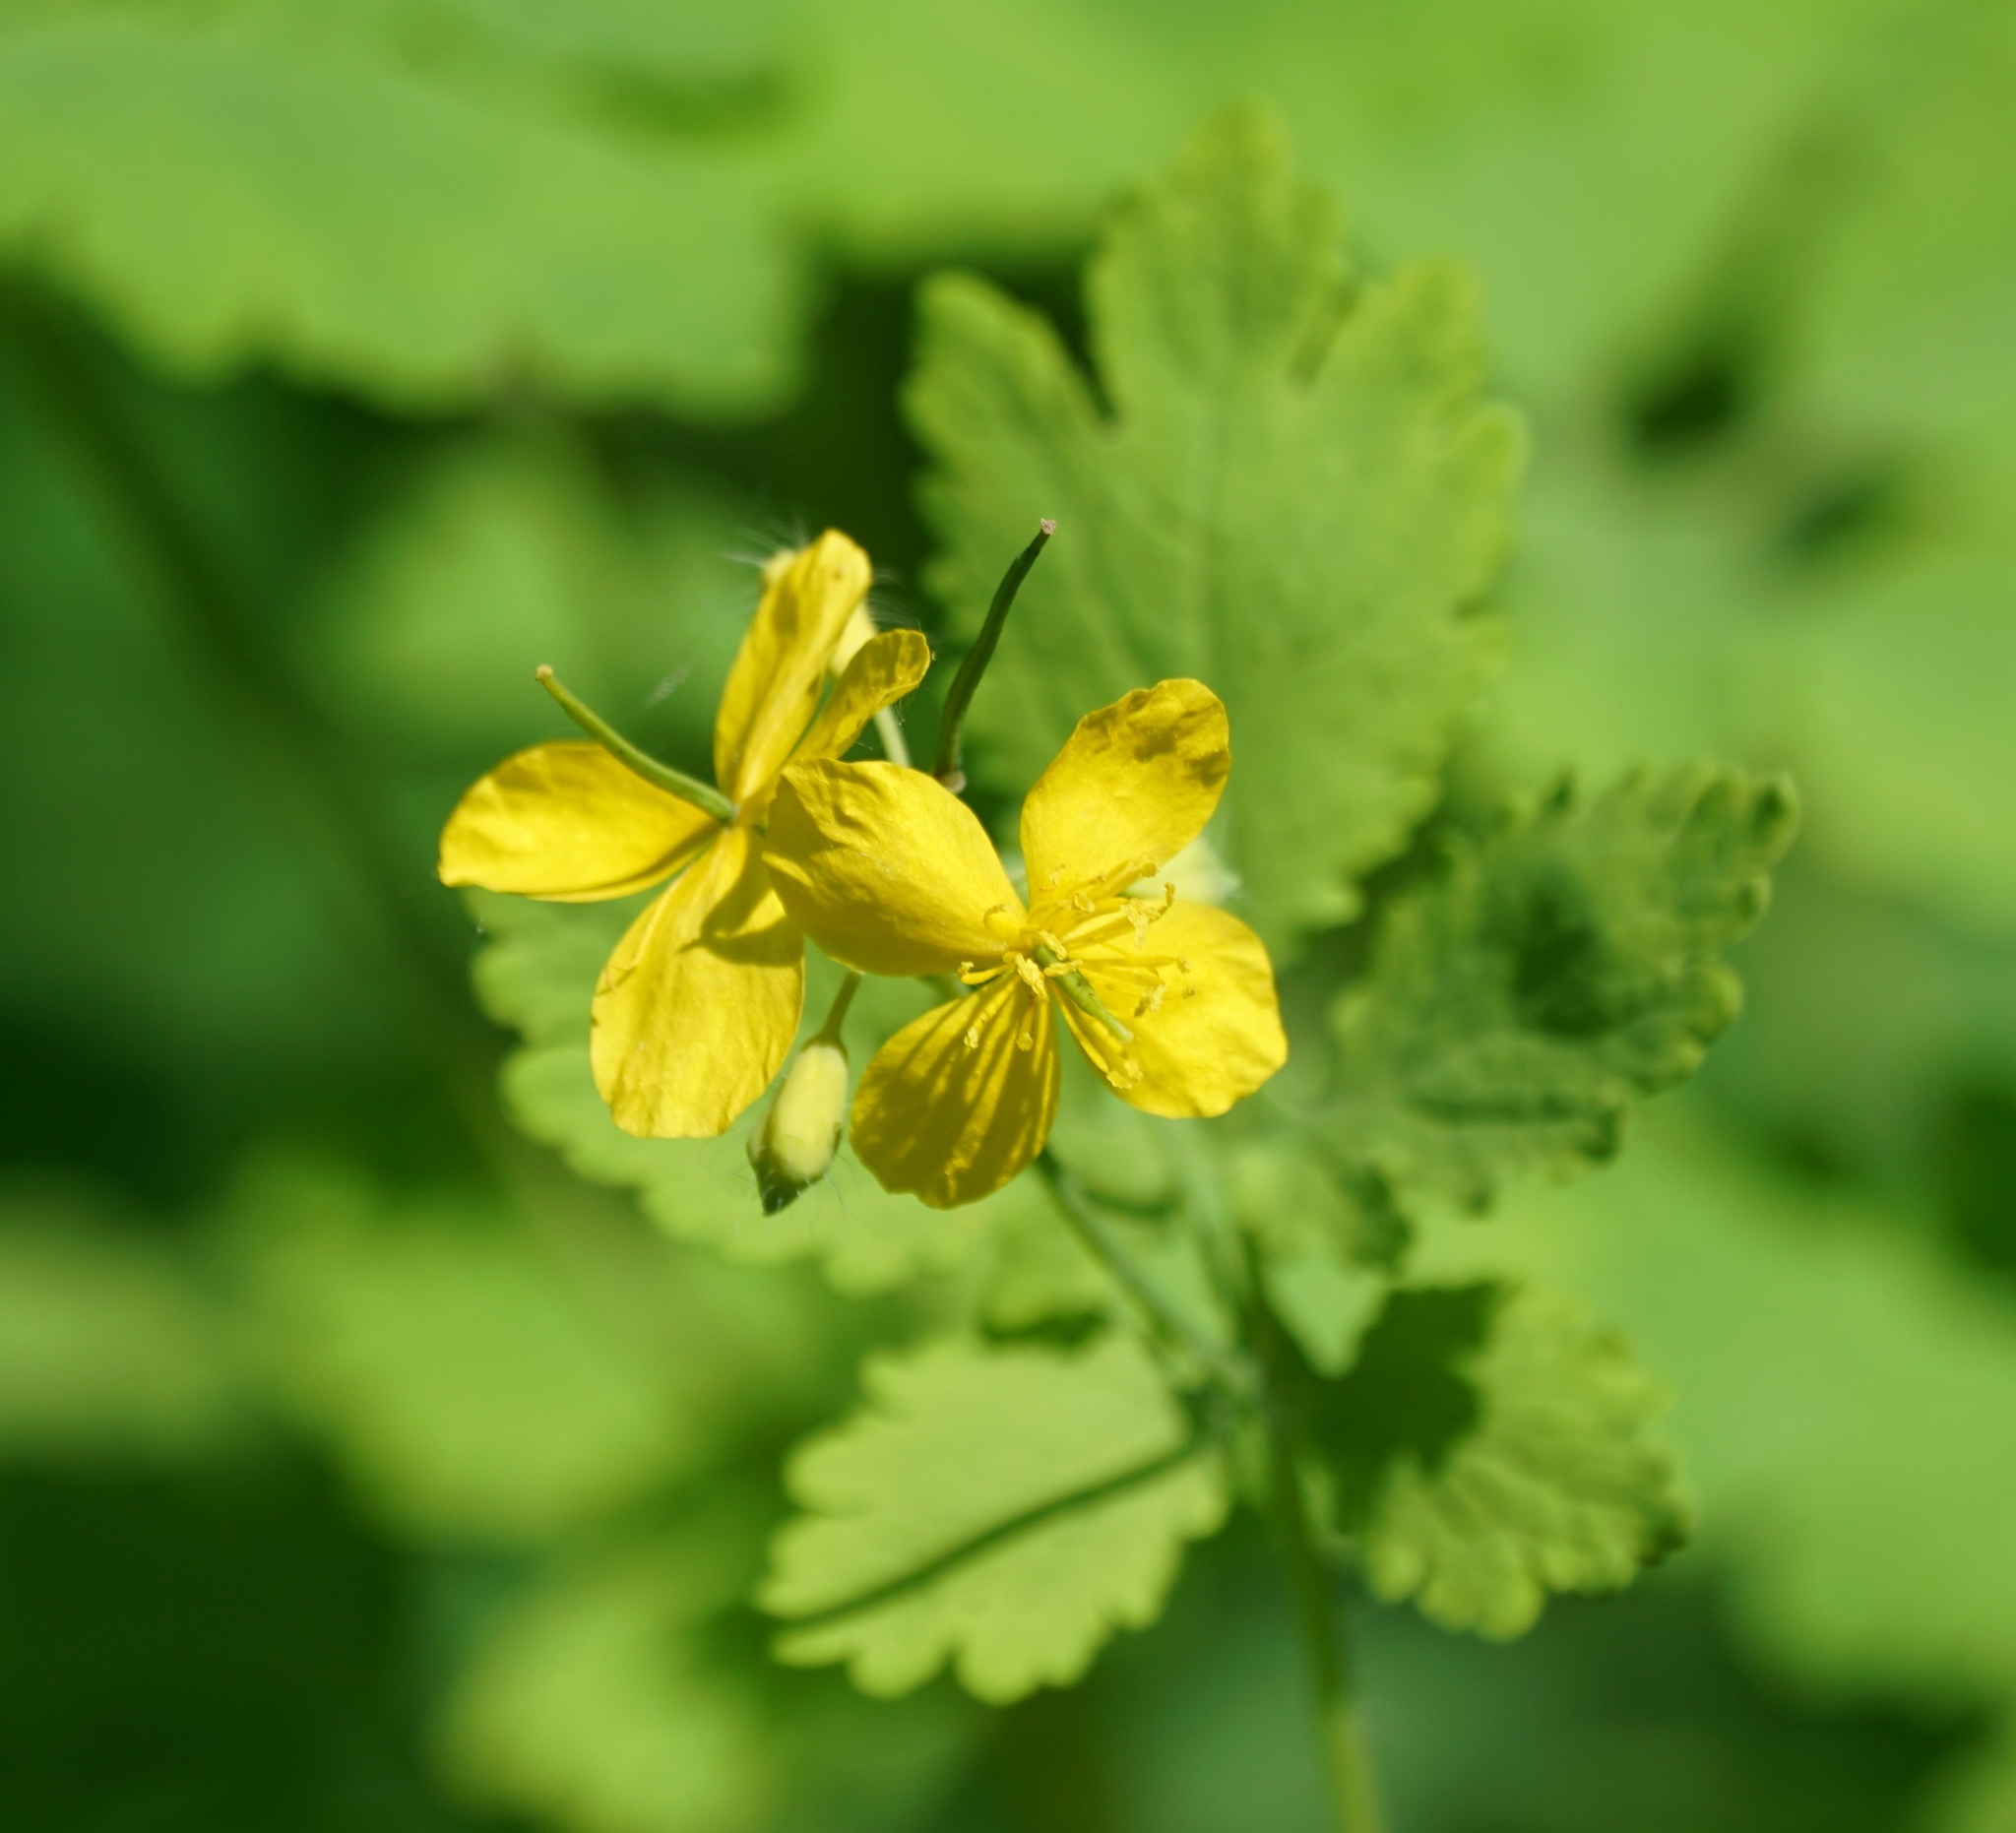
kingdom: Plantae
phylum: Tracheophyta
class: Magnoliopsida
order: Ranunculales
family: Papaveraceae
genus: Chelidonium
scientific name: Chelidonium majus
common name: Greater celandine
